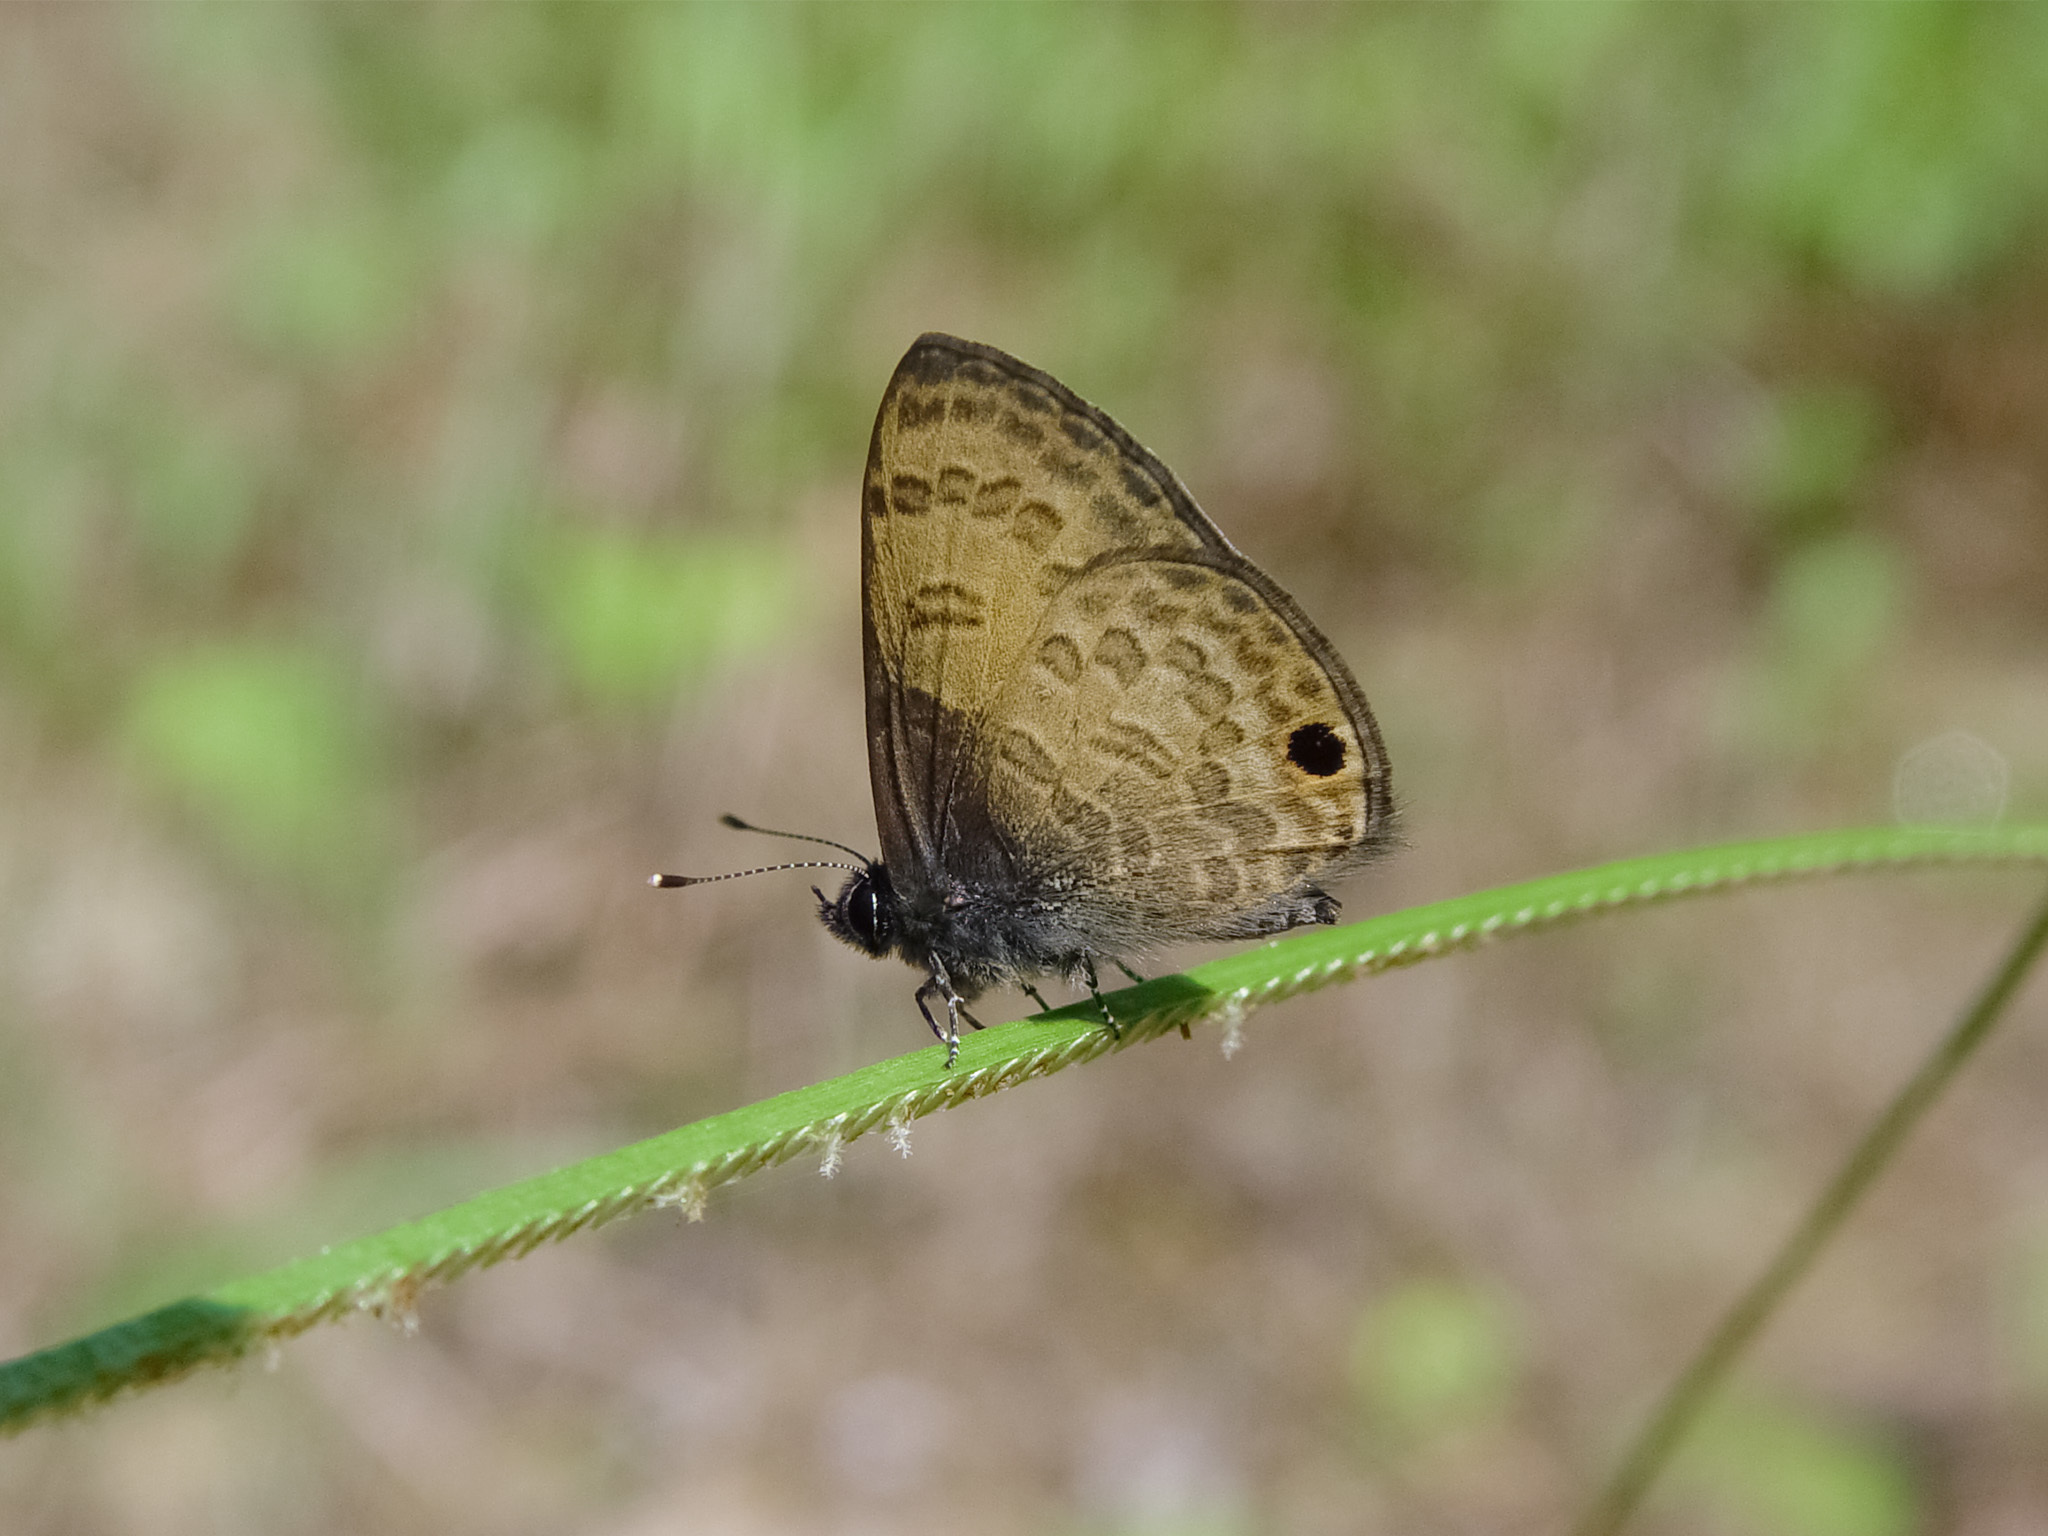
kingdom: Animalia
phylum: Arthropoda
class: Insecta
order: Lepidoptera
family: Lycaenidae
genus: Prosotas
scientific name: Prosotas gracilis
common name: Dark-based lineblue
